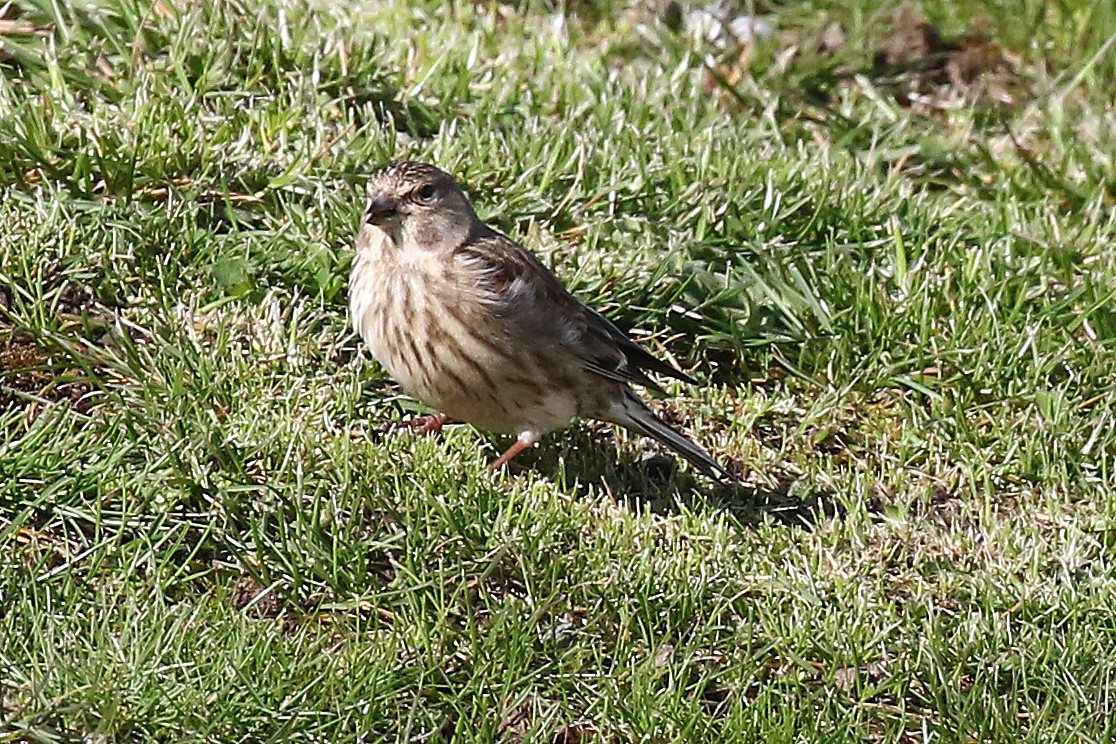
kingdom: Animalia
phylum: Chordata
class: Aves
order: Passeriformes
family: Fringillidae
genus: Linaria
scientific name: Linaria cannabina
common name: Common linnet
